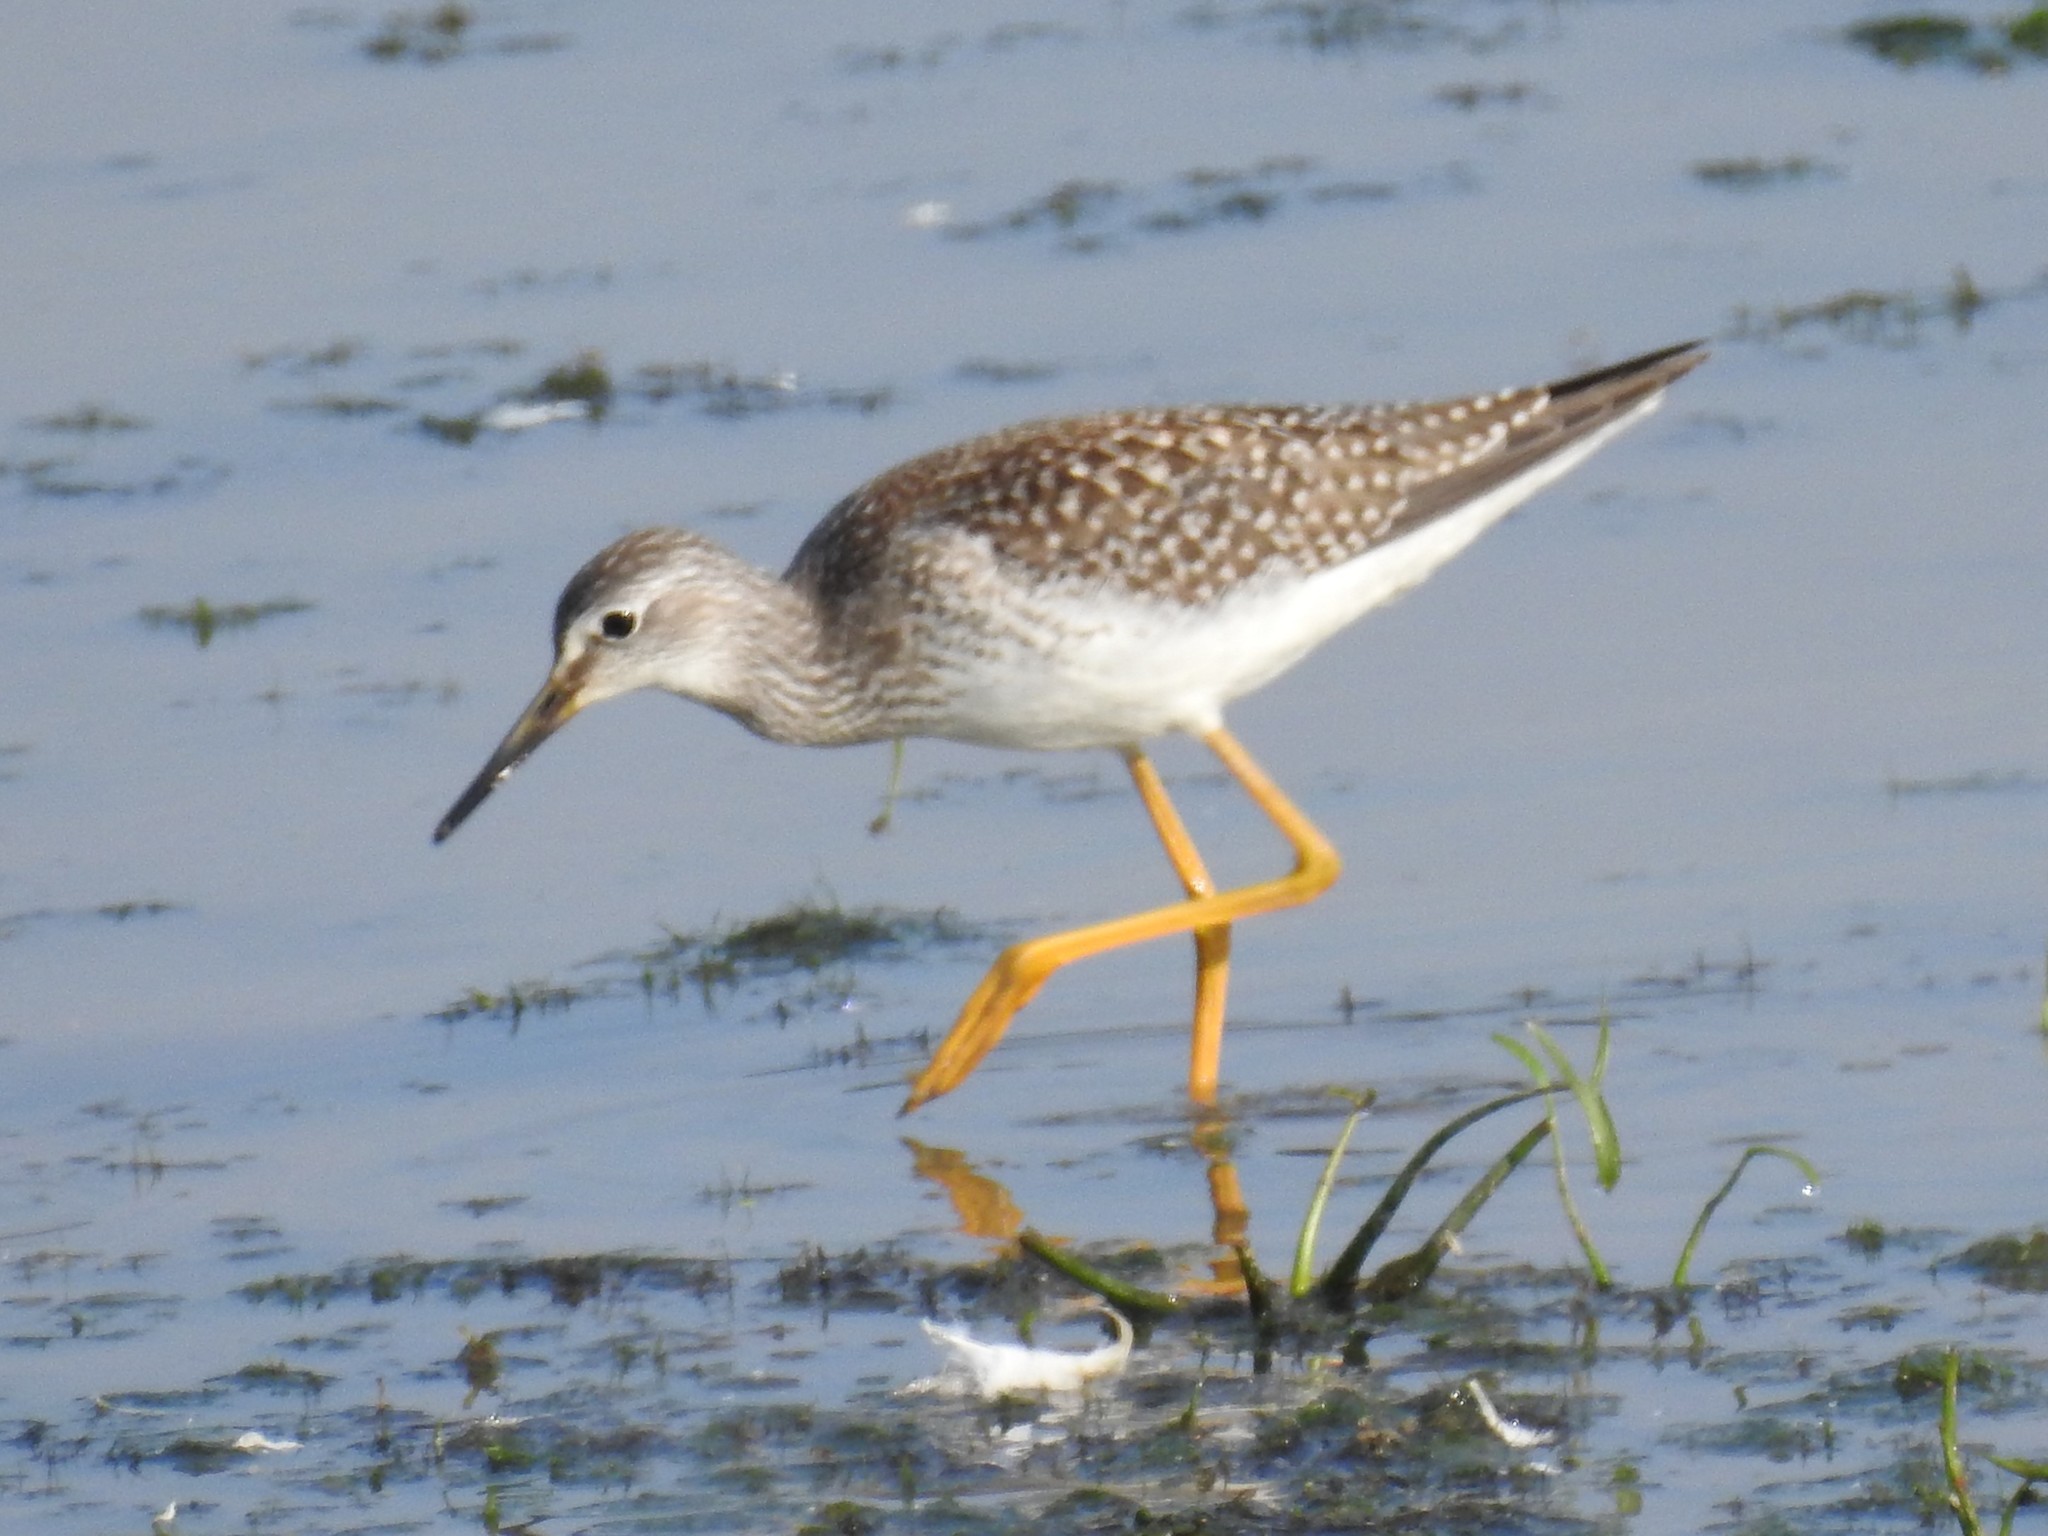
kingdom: Animalia
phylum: Chordata
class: Aves
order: Charadriiformes
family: Scolopacidae
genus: Tringa
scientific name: Tringa flavipes
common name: Lesser yellowlegs
